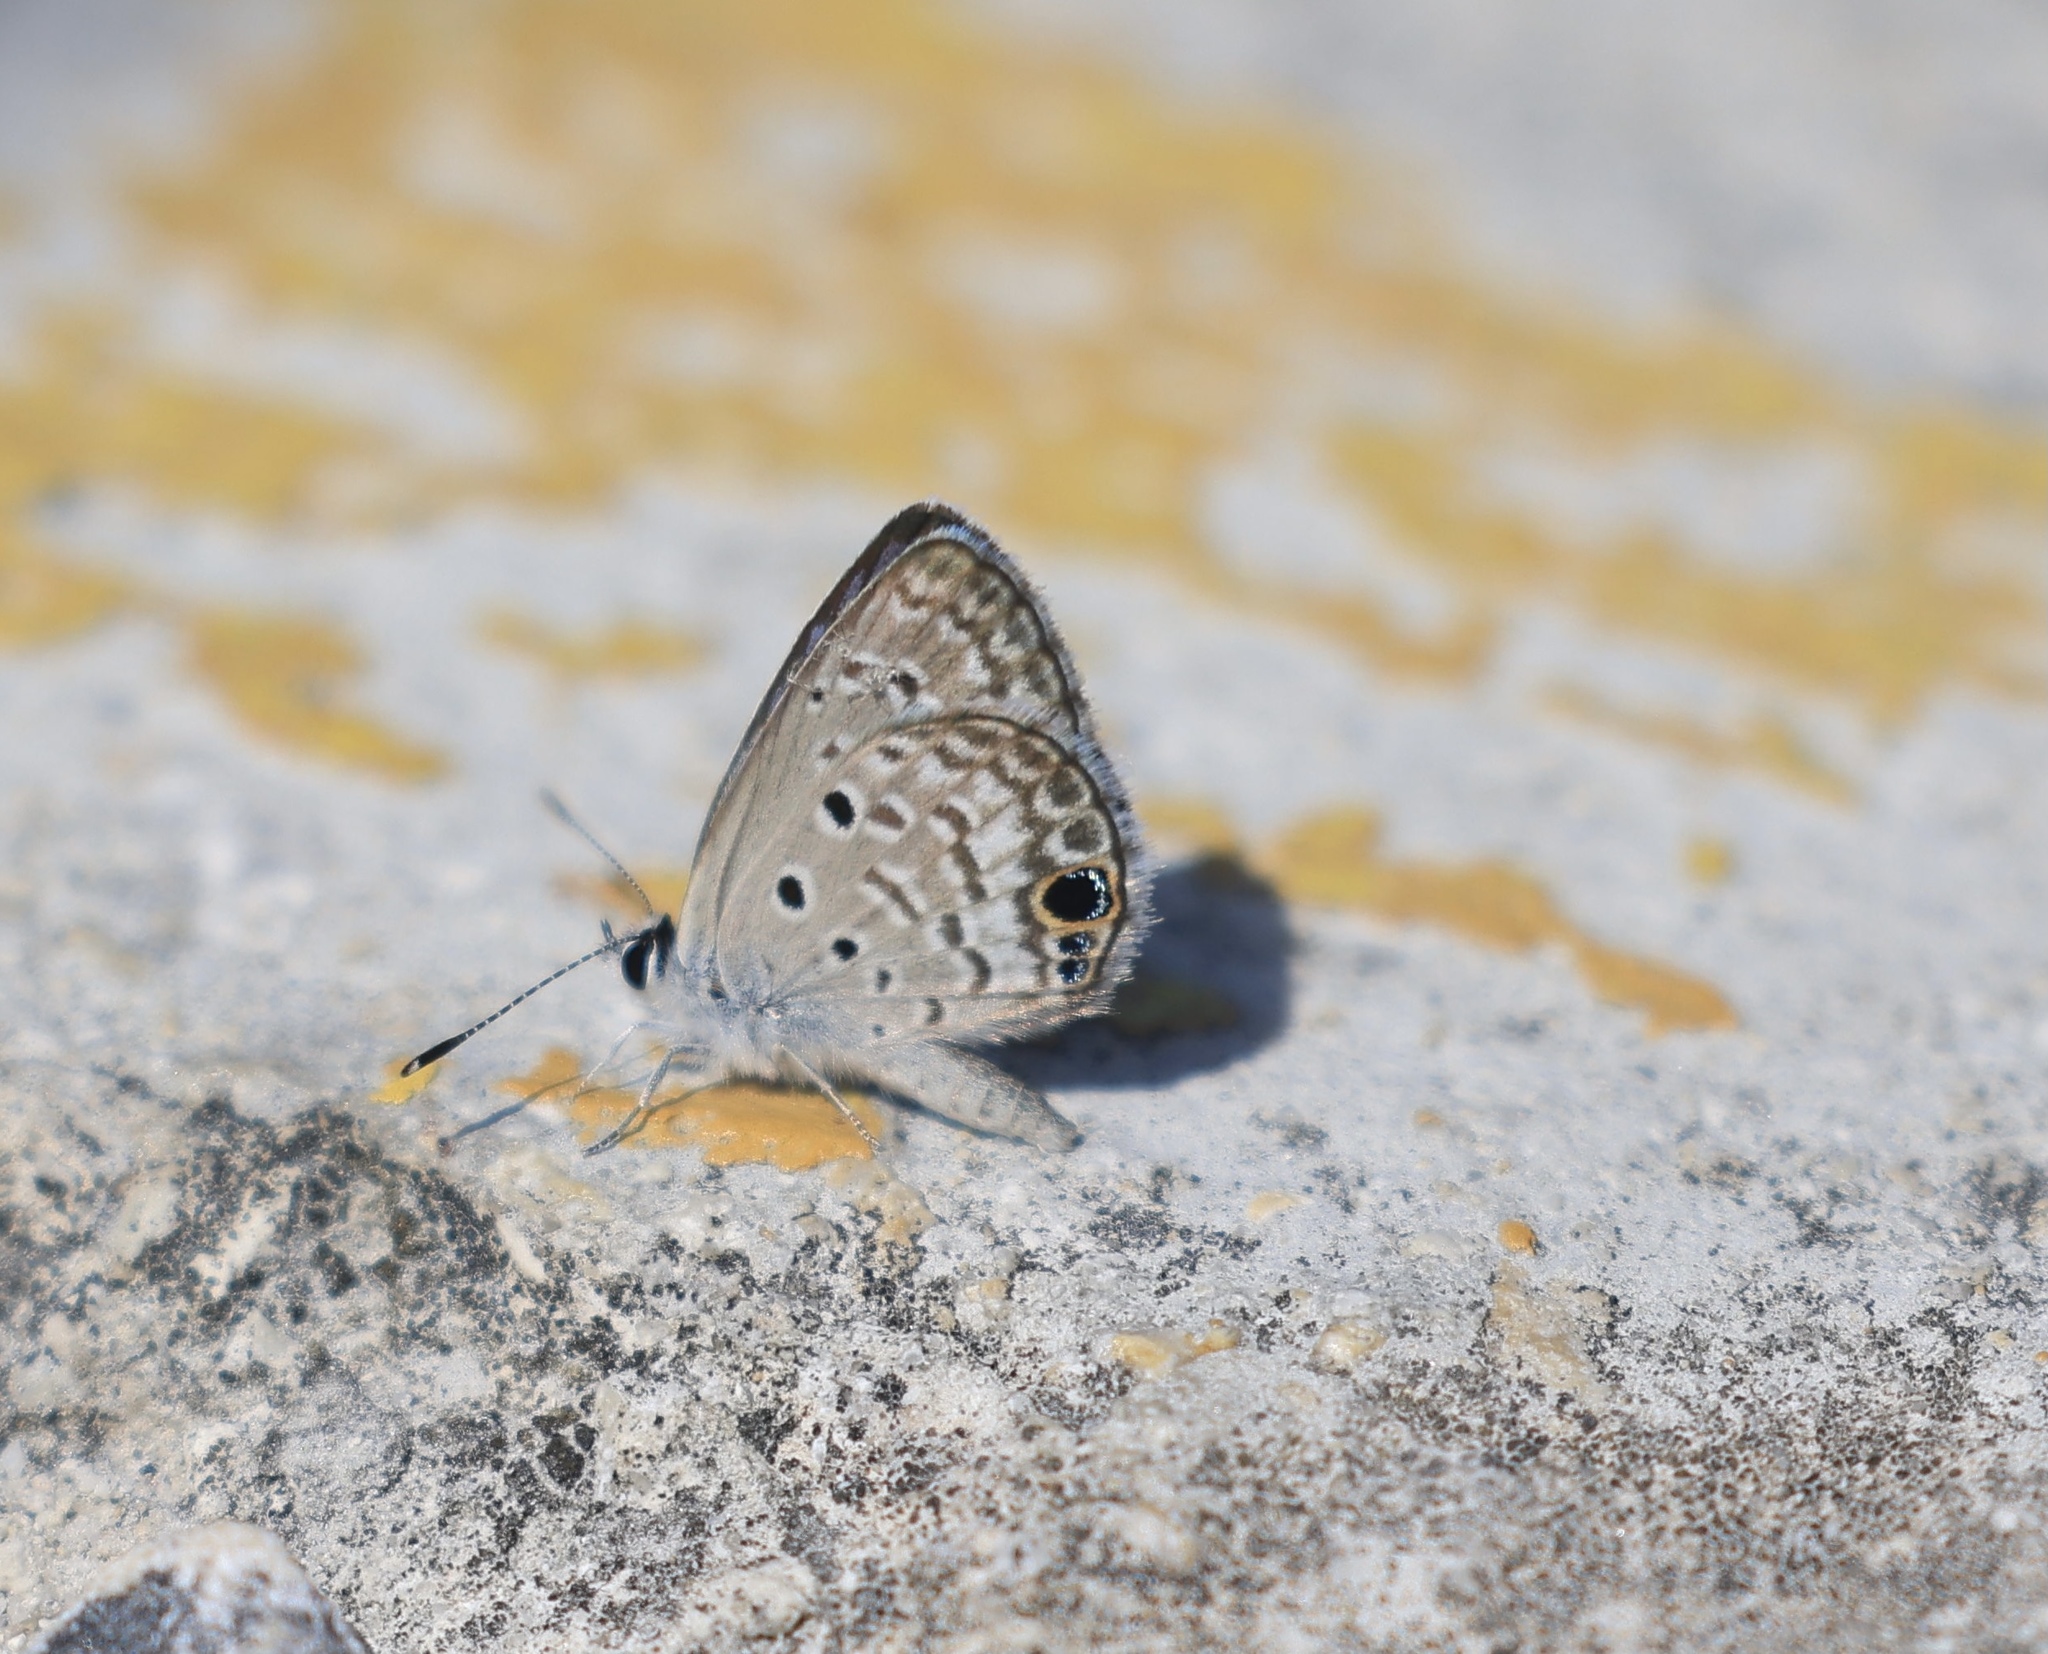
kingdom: Animalia
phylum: Arthropoda
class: Insecta
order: Lepidoptera
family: Lycaenidae
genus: Hemiargus
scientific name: Hemiargus ceraunus
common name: Ceraunus blue
